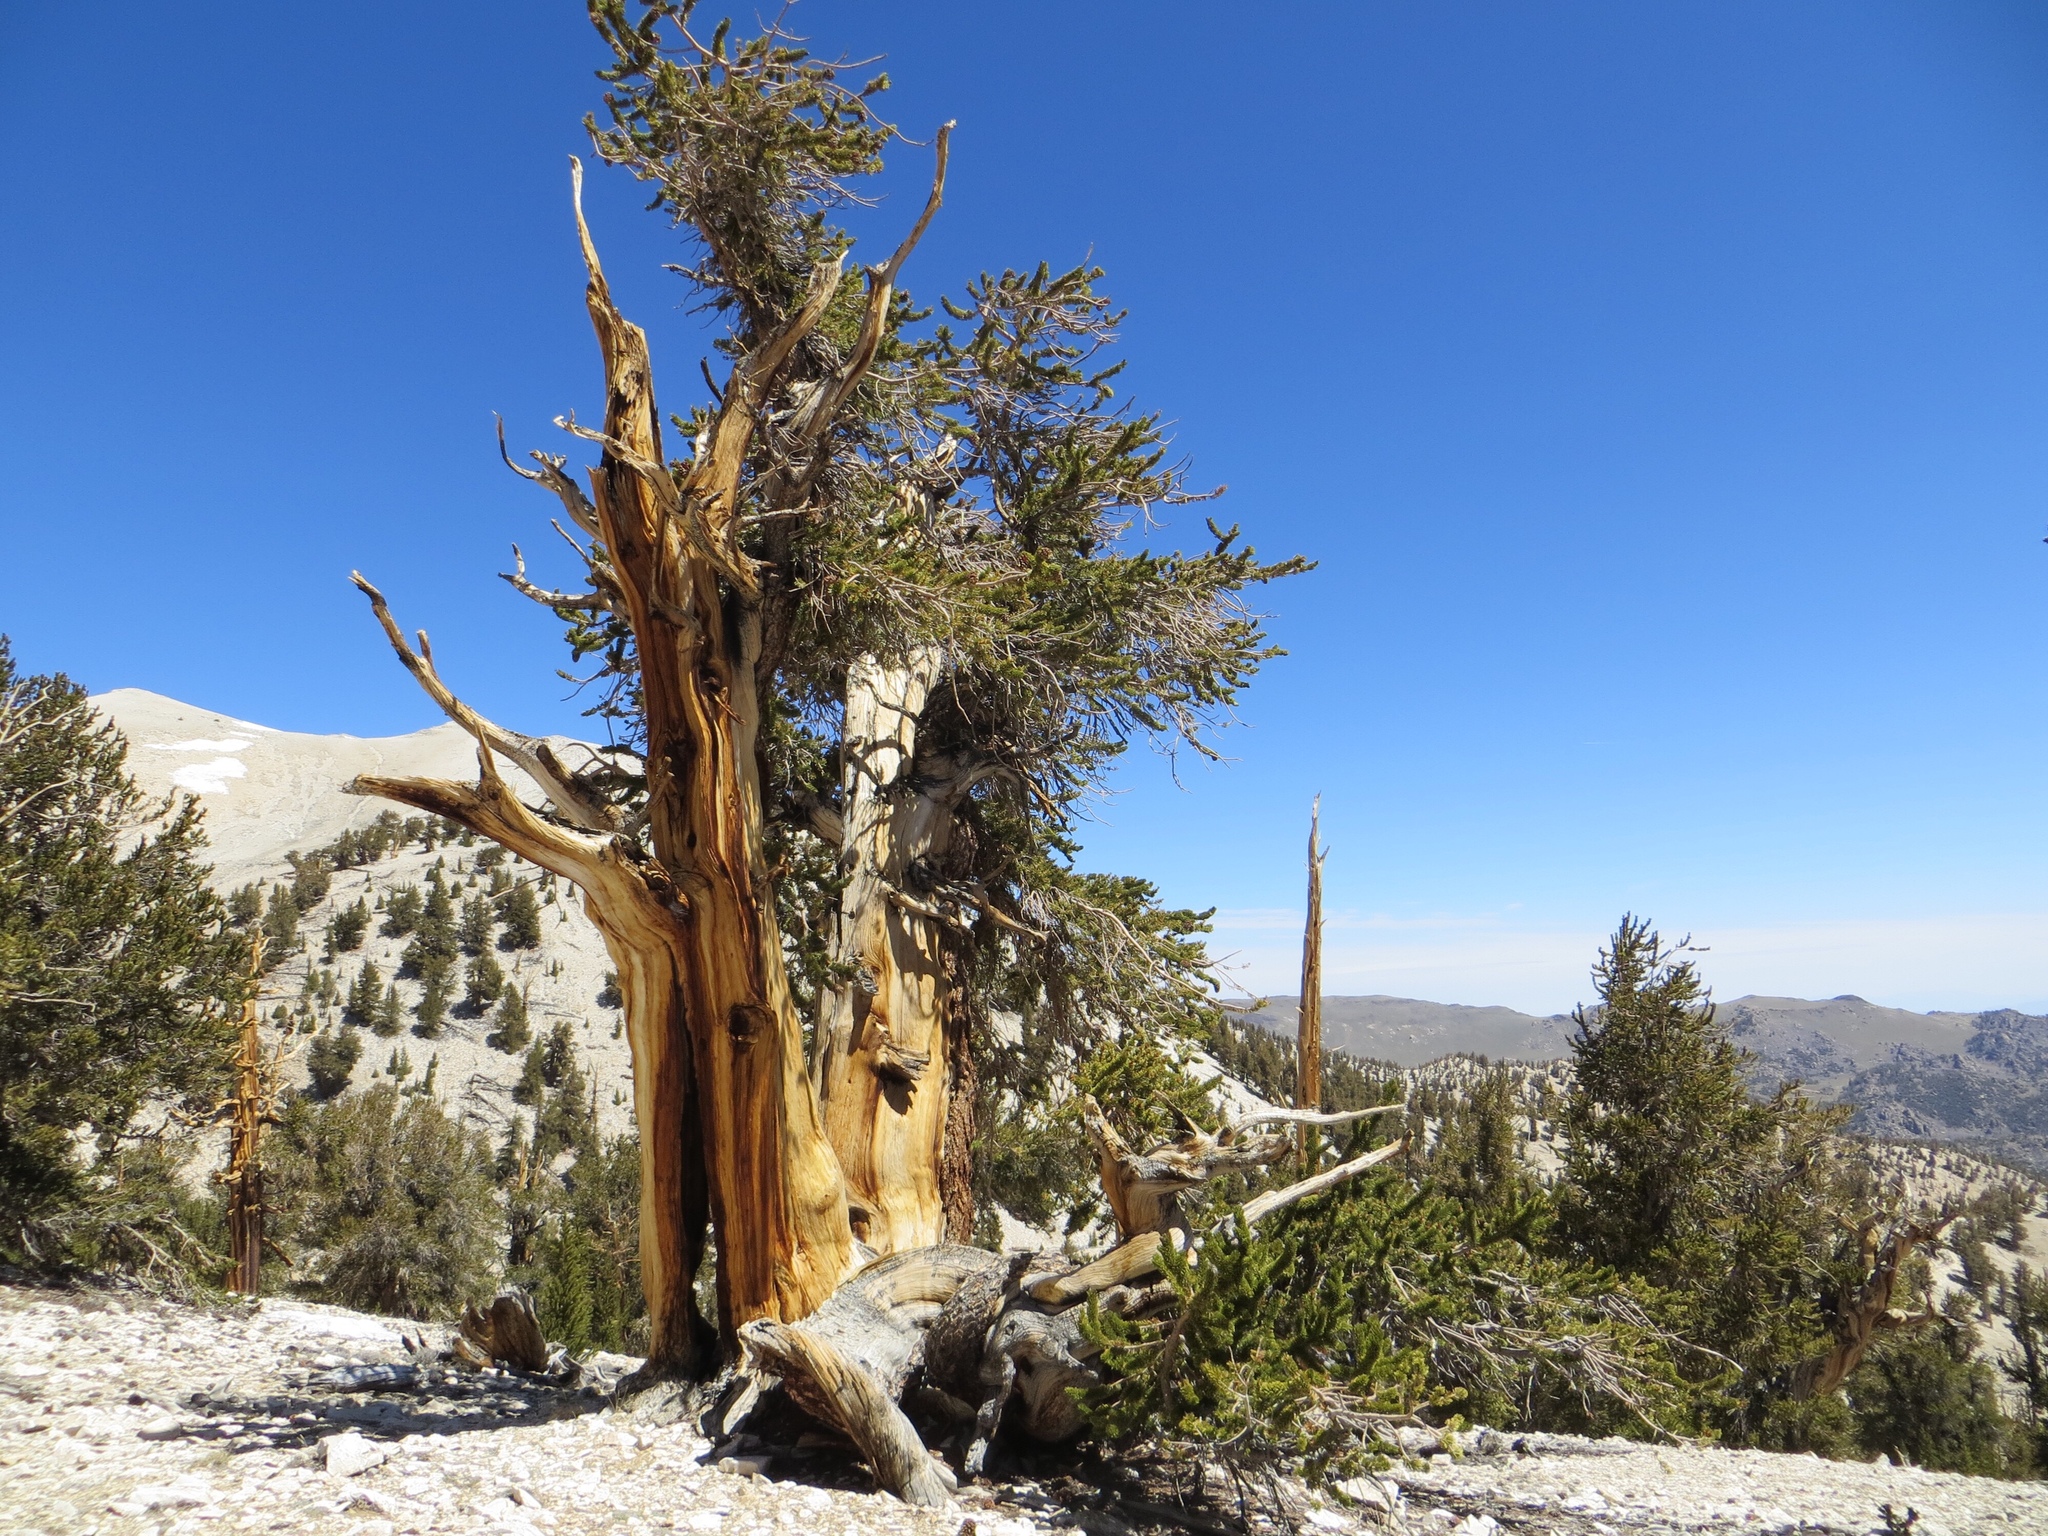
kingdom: Plantae
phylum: Tracheophyta
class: Pinopsida
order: Pinales
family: Pinaceae
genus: Pinus
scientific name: Pinus longaeva
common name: Intermountain bristlecone pine
